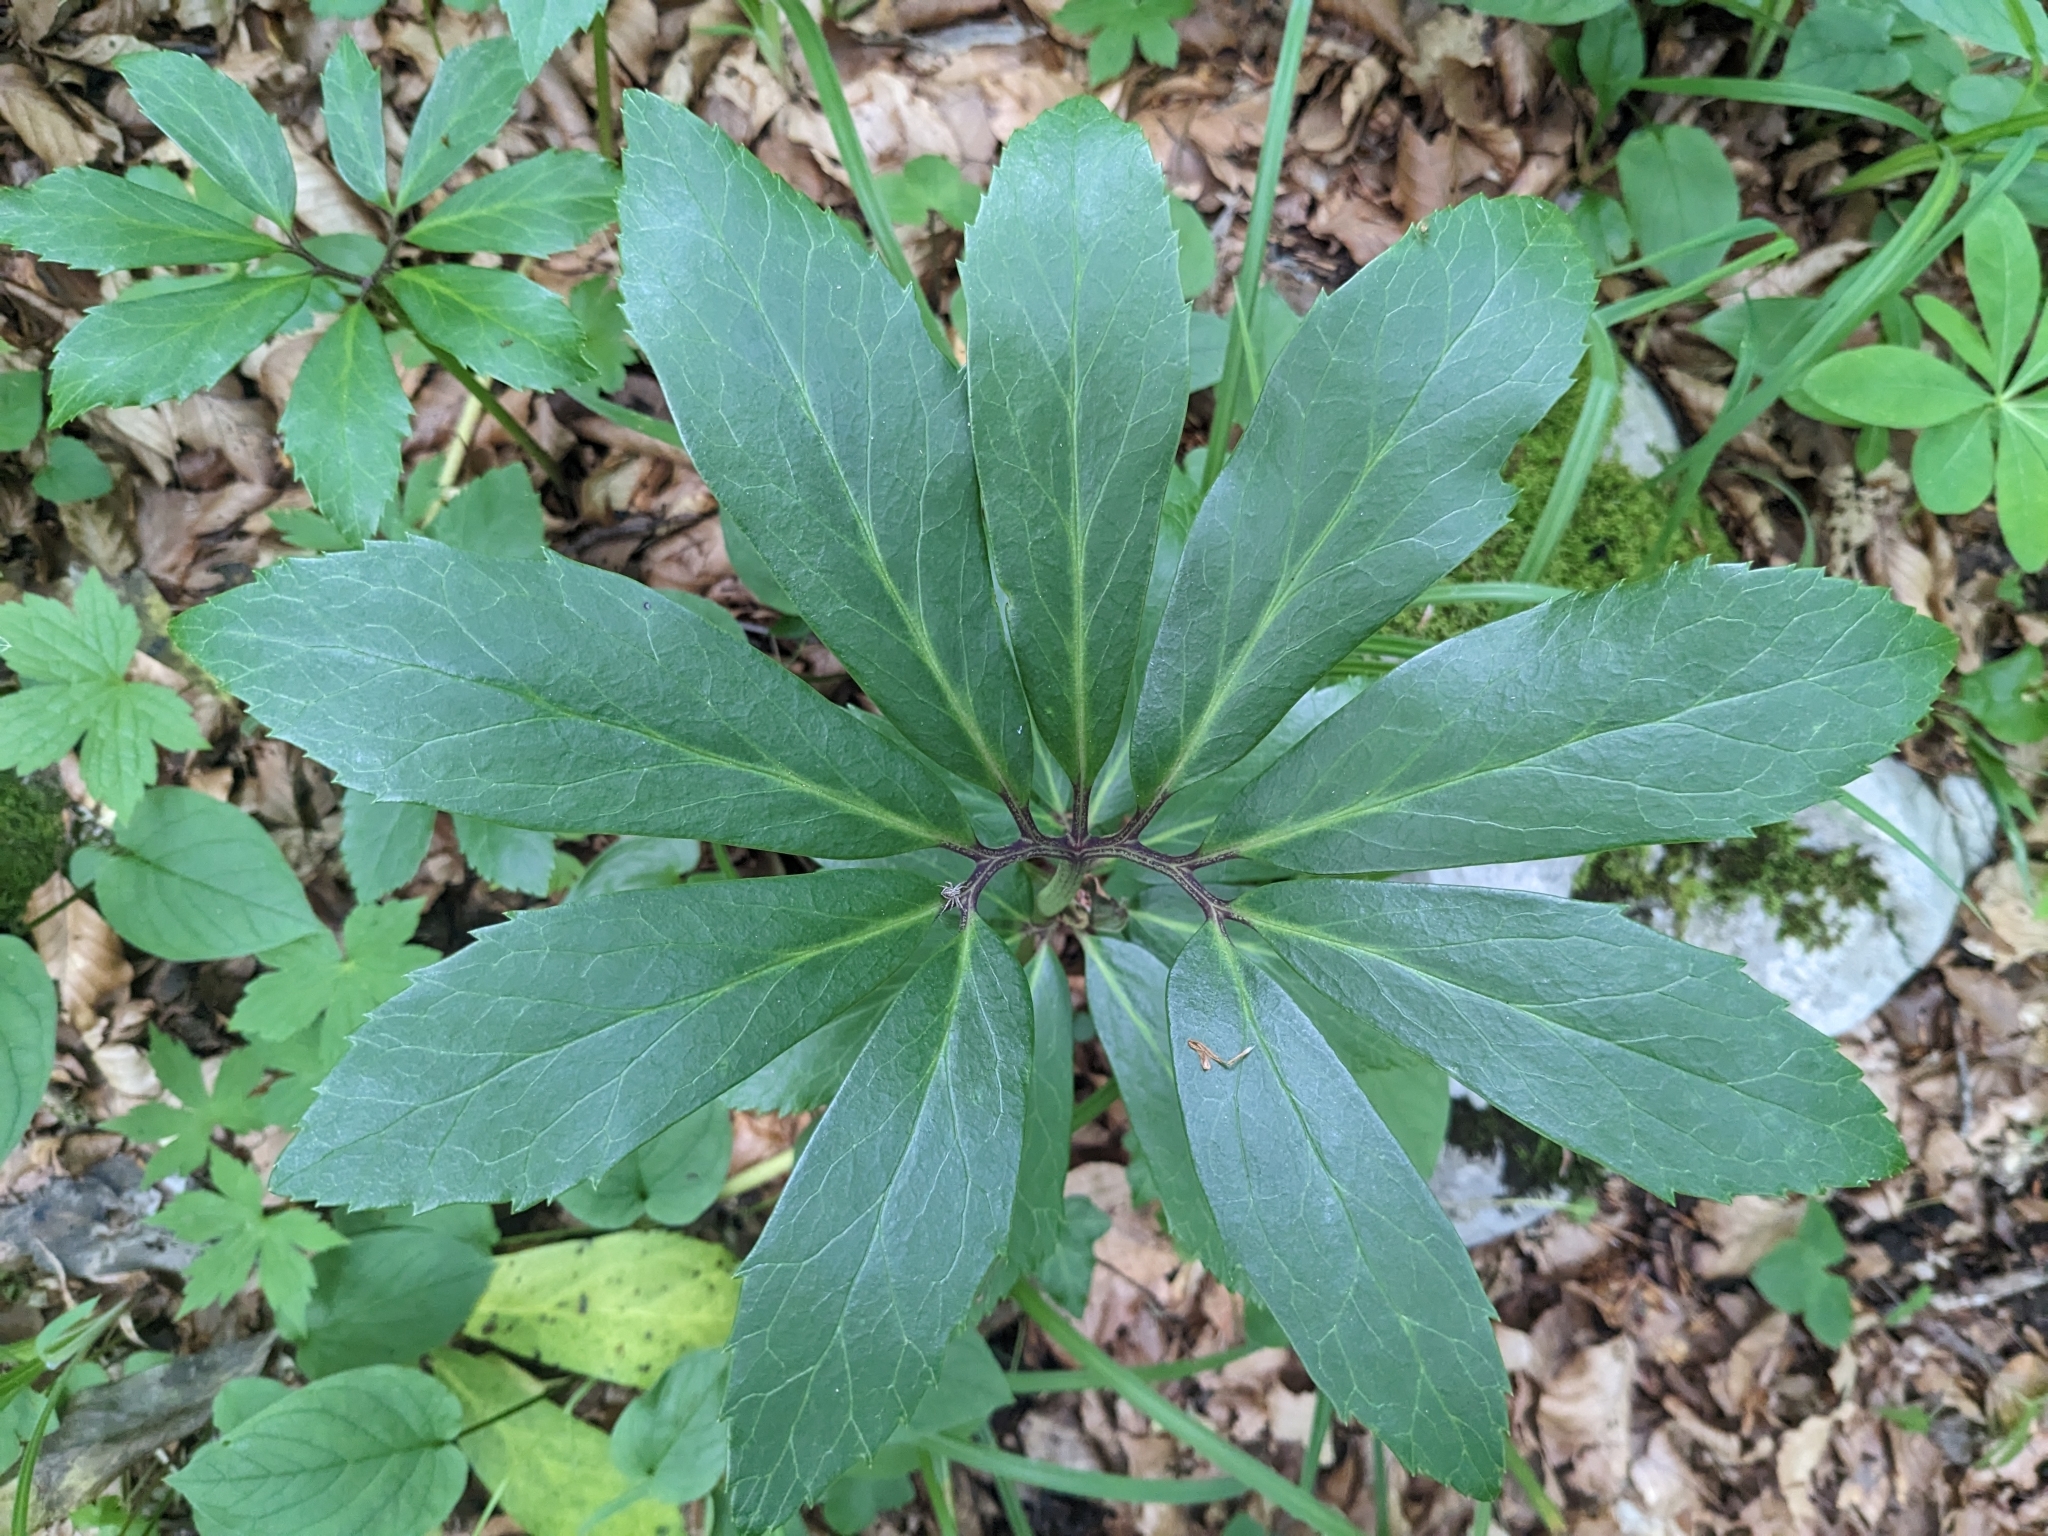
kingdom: Plantae
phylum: Tracheophyta
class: Magnoliopsida
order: Ranunculales
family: Ranunculaceae
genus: Helleborus
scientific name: Helleborus niger
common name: Black hellebore
